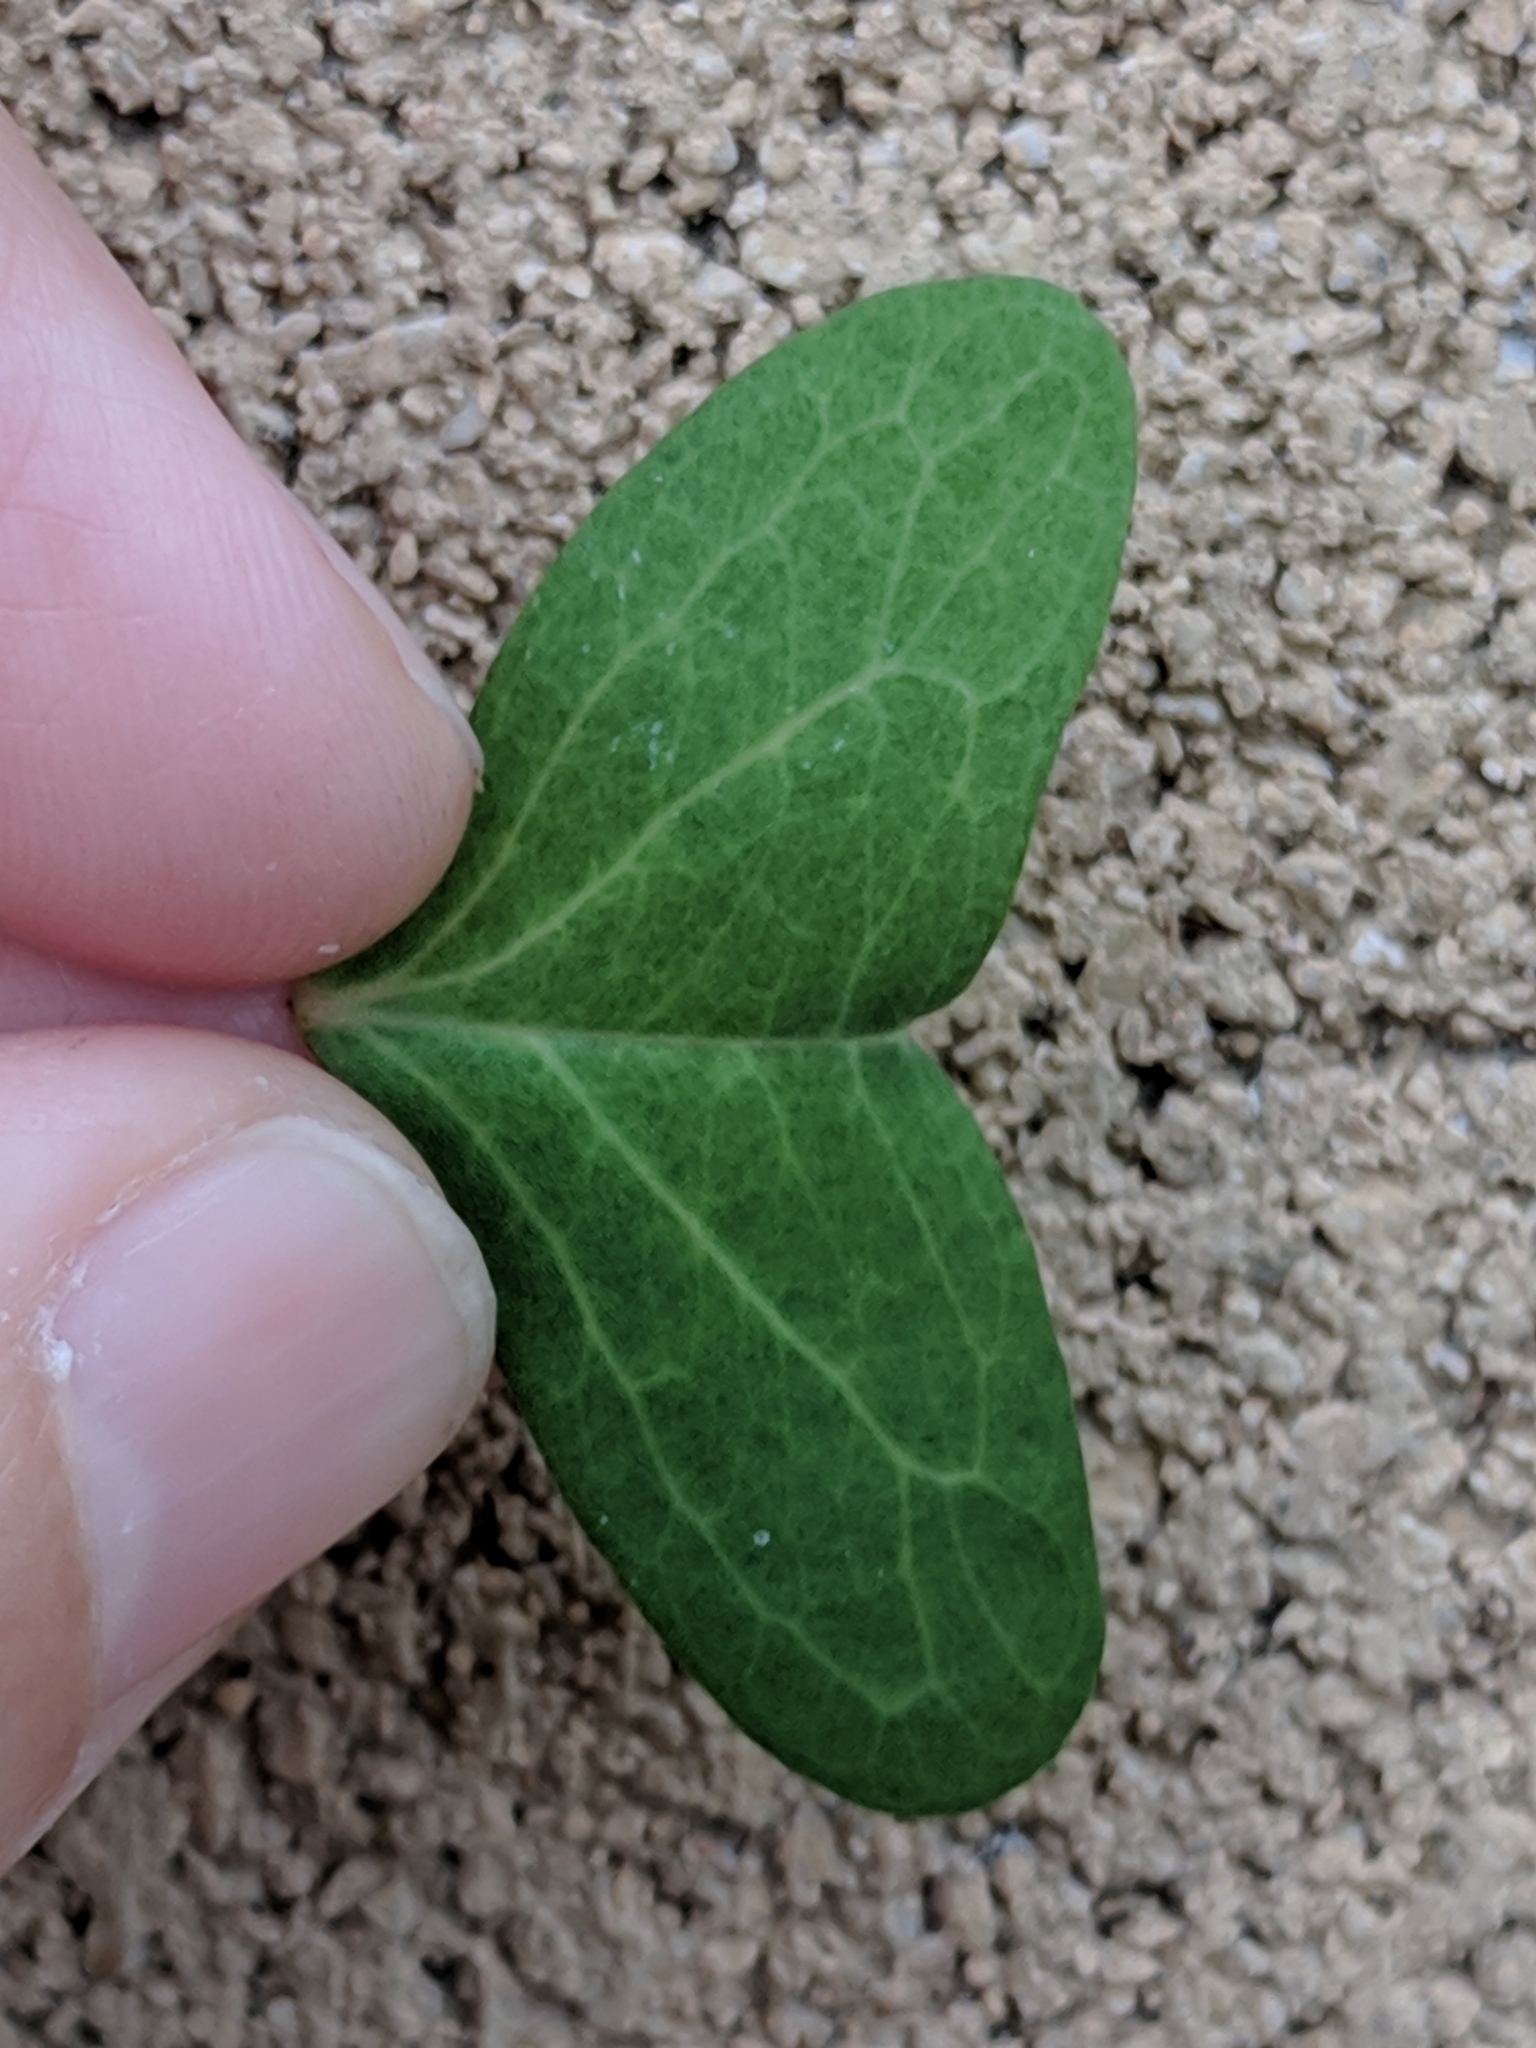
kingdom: Plantae
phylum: Tracheophyta
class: Magnoliopsida
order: Oxalidales
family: Oxalidaceae
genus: Oxalis
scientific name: Oxalis drummondii
